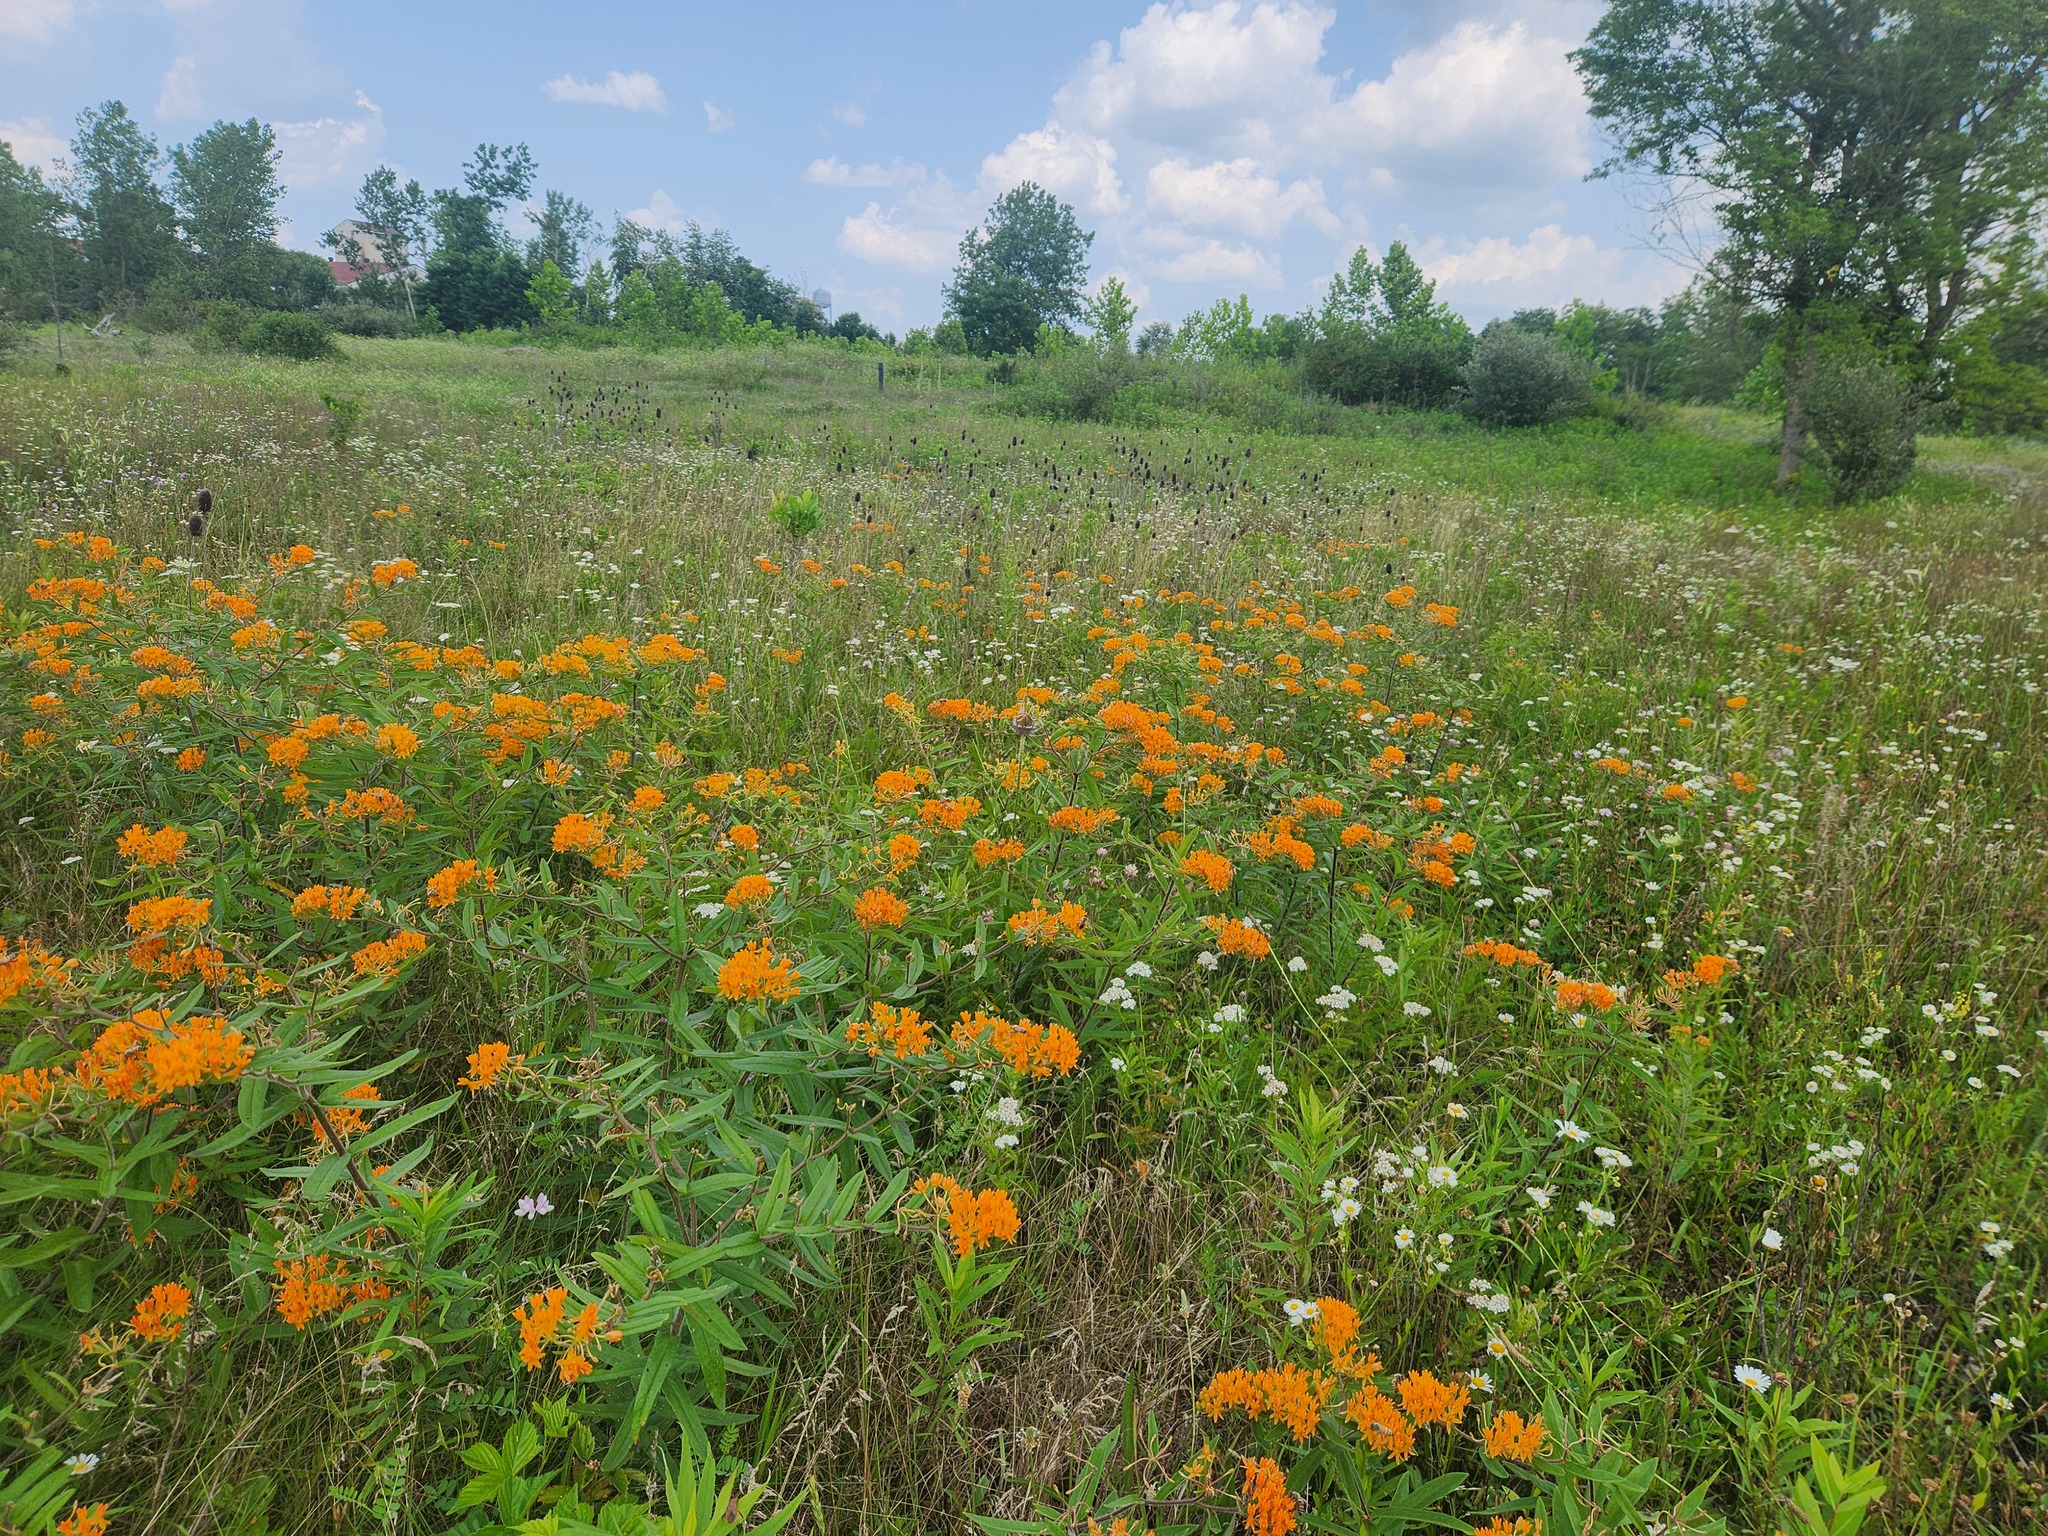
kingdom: Plantae
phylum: Tracheophyta
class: Magnoliopsida
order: Gentianales
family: Apocynaceae
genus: Asclepias
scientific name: Asclepias tuberosa
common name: Butterfly milkweed
